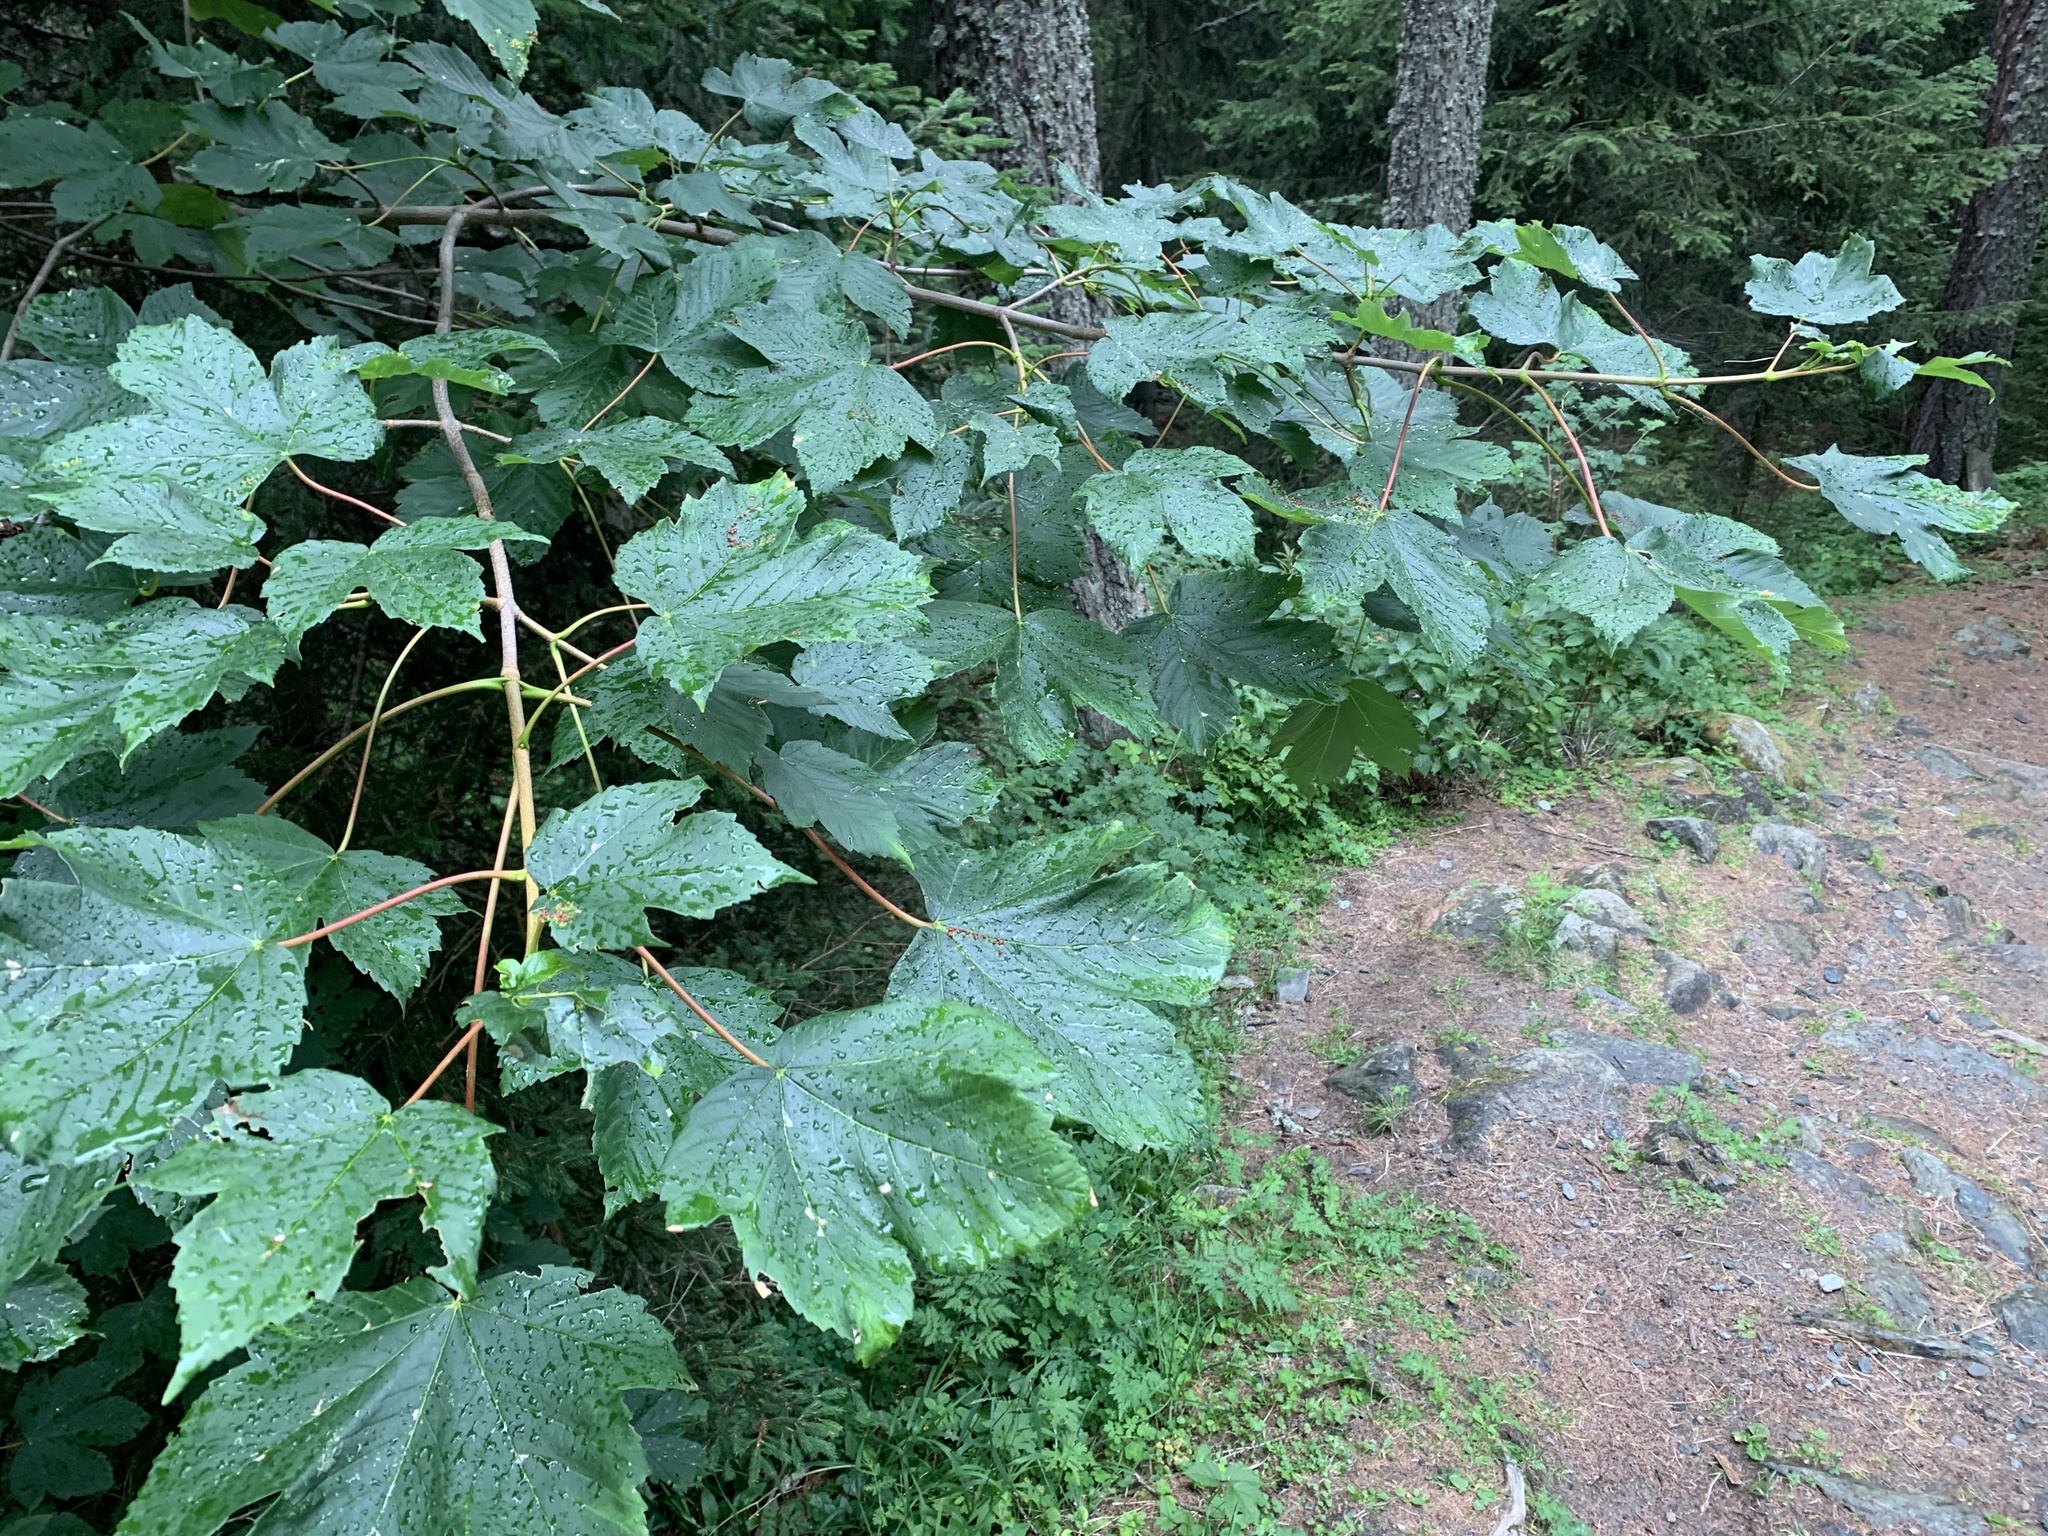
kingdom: Plantae
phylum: Tracheophyta
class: Magnoliopsida
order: Sapindales
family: Sapindaceae
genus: Acer
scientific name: Acer pseudoplatanus
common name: Sycamore
